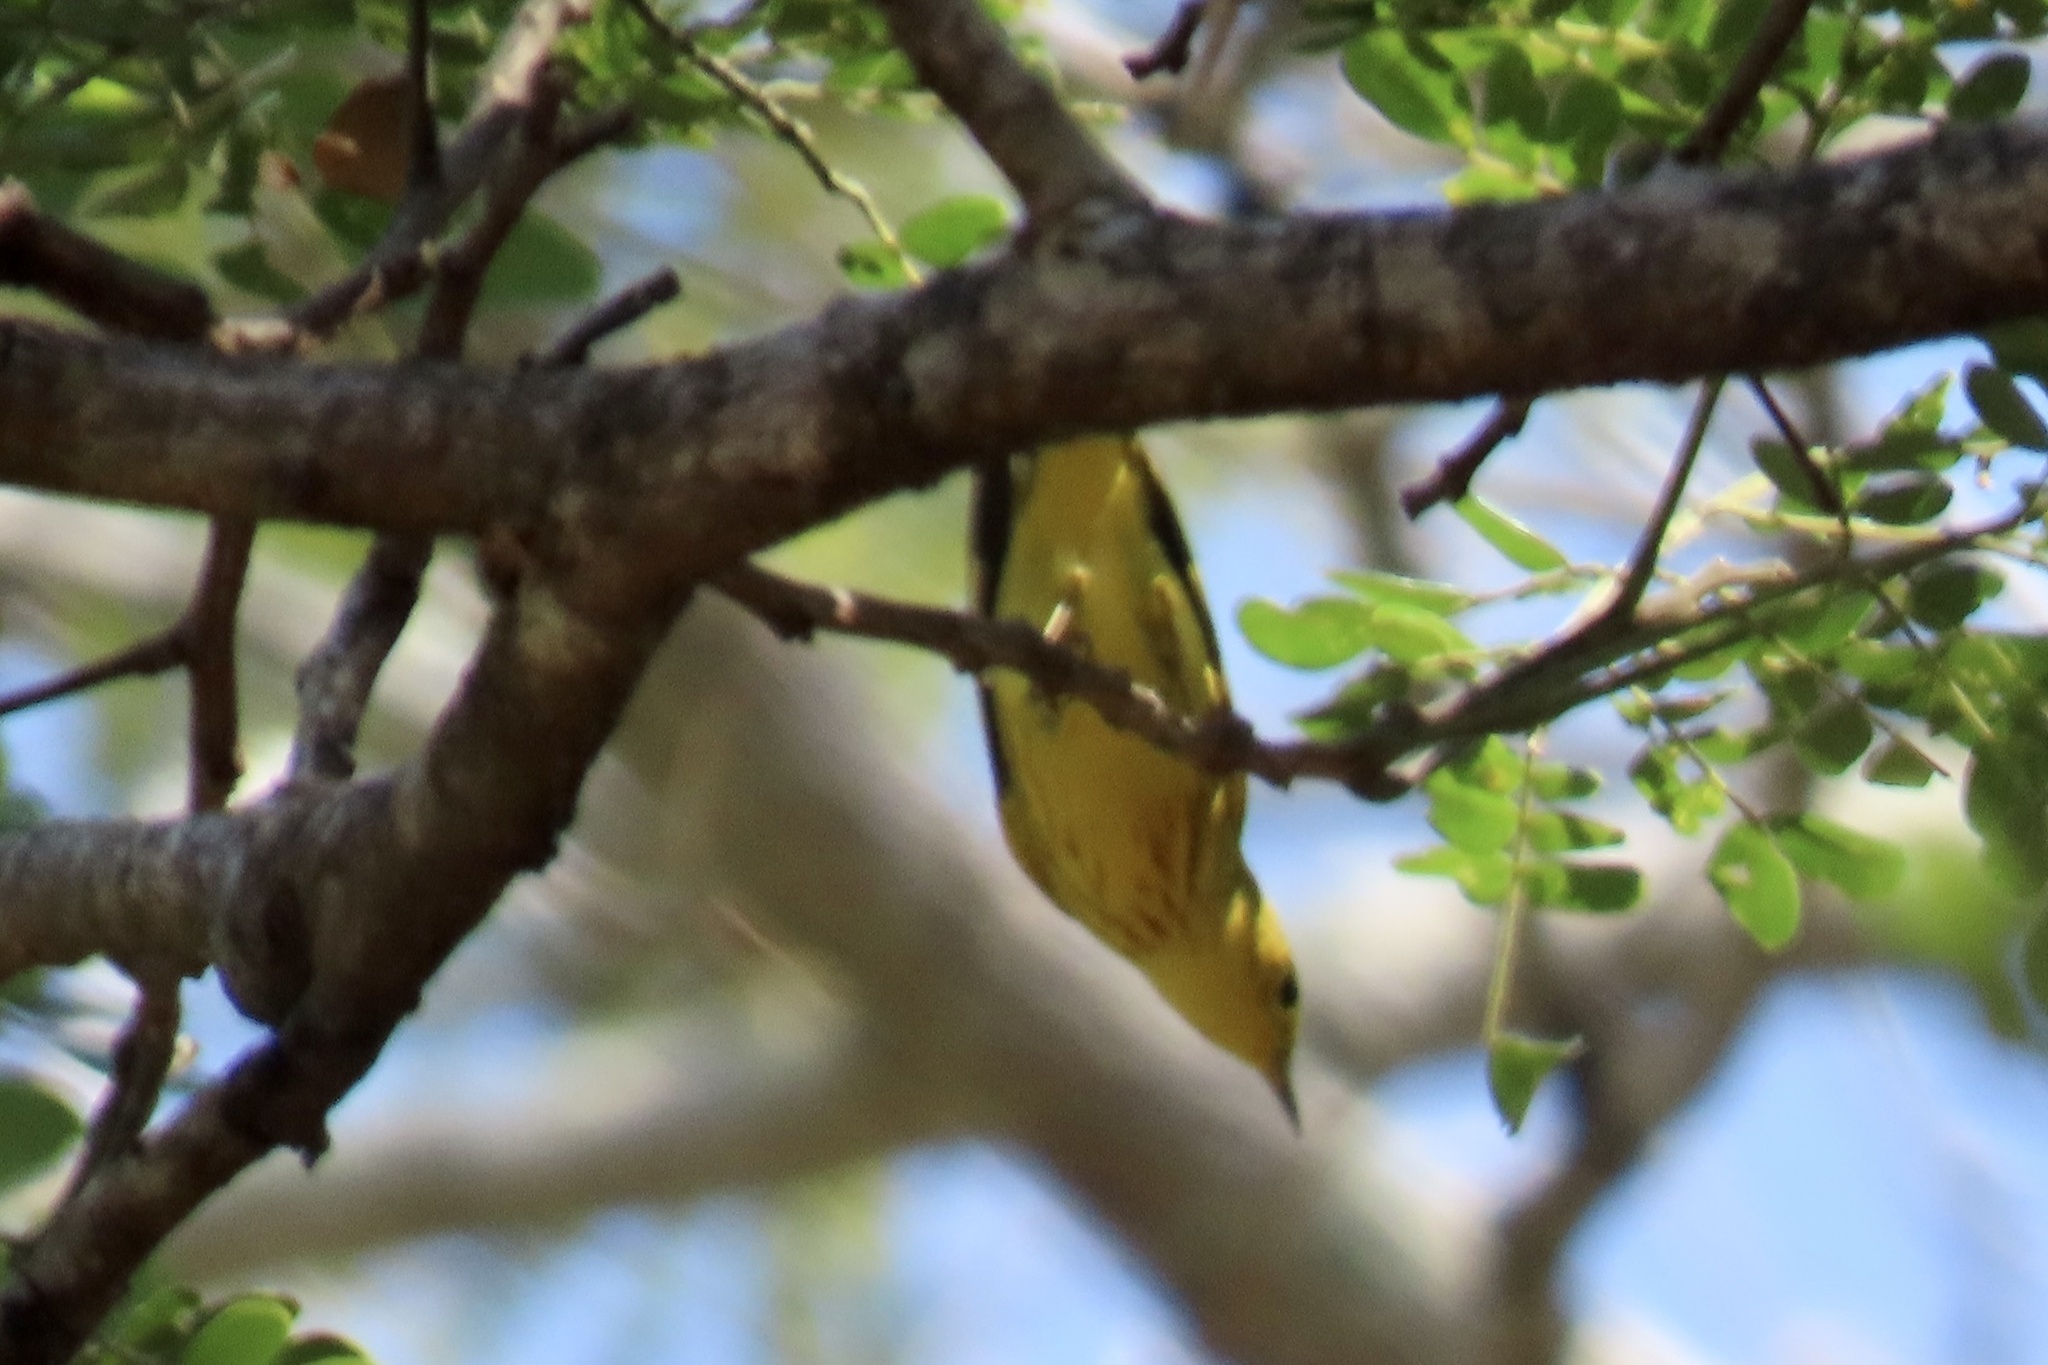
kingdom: Animalia
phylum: Chordata
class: Aves
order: Passeriformes
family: Parulidae
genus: Setophaga
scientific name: Setophaga petechia
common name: Yellow warbler
